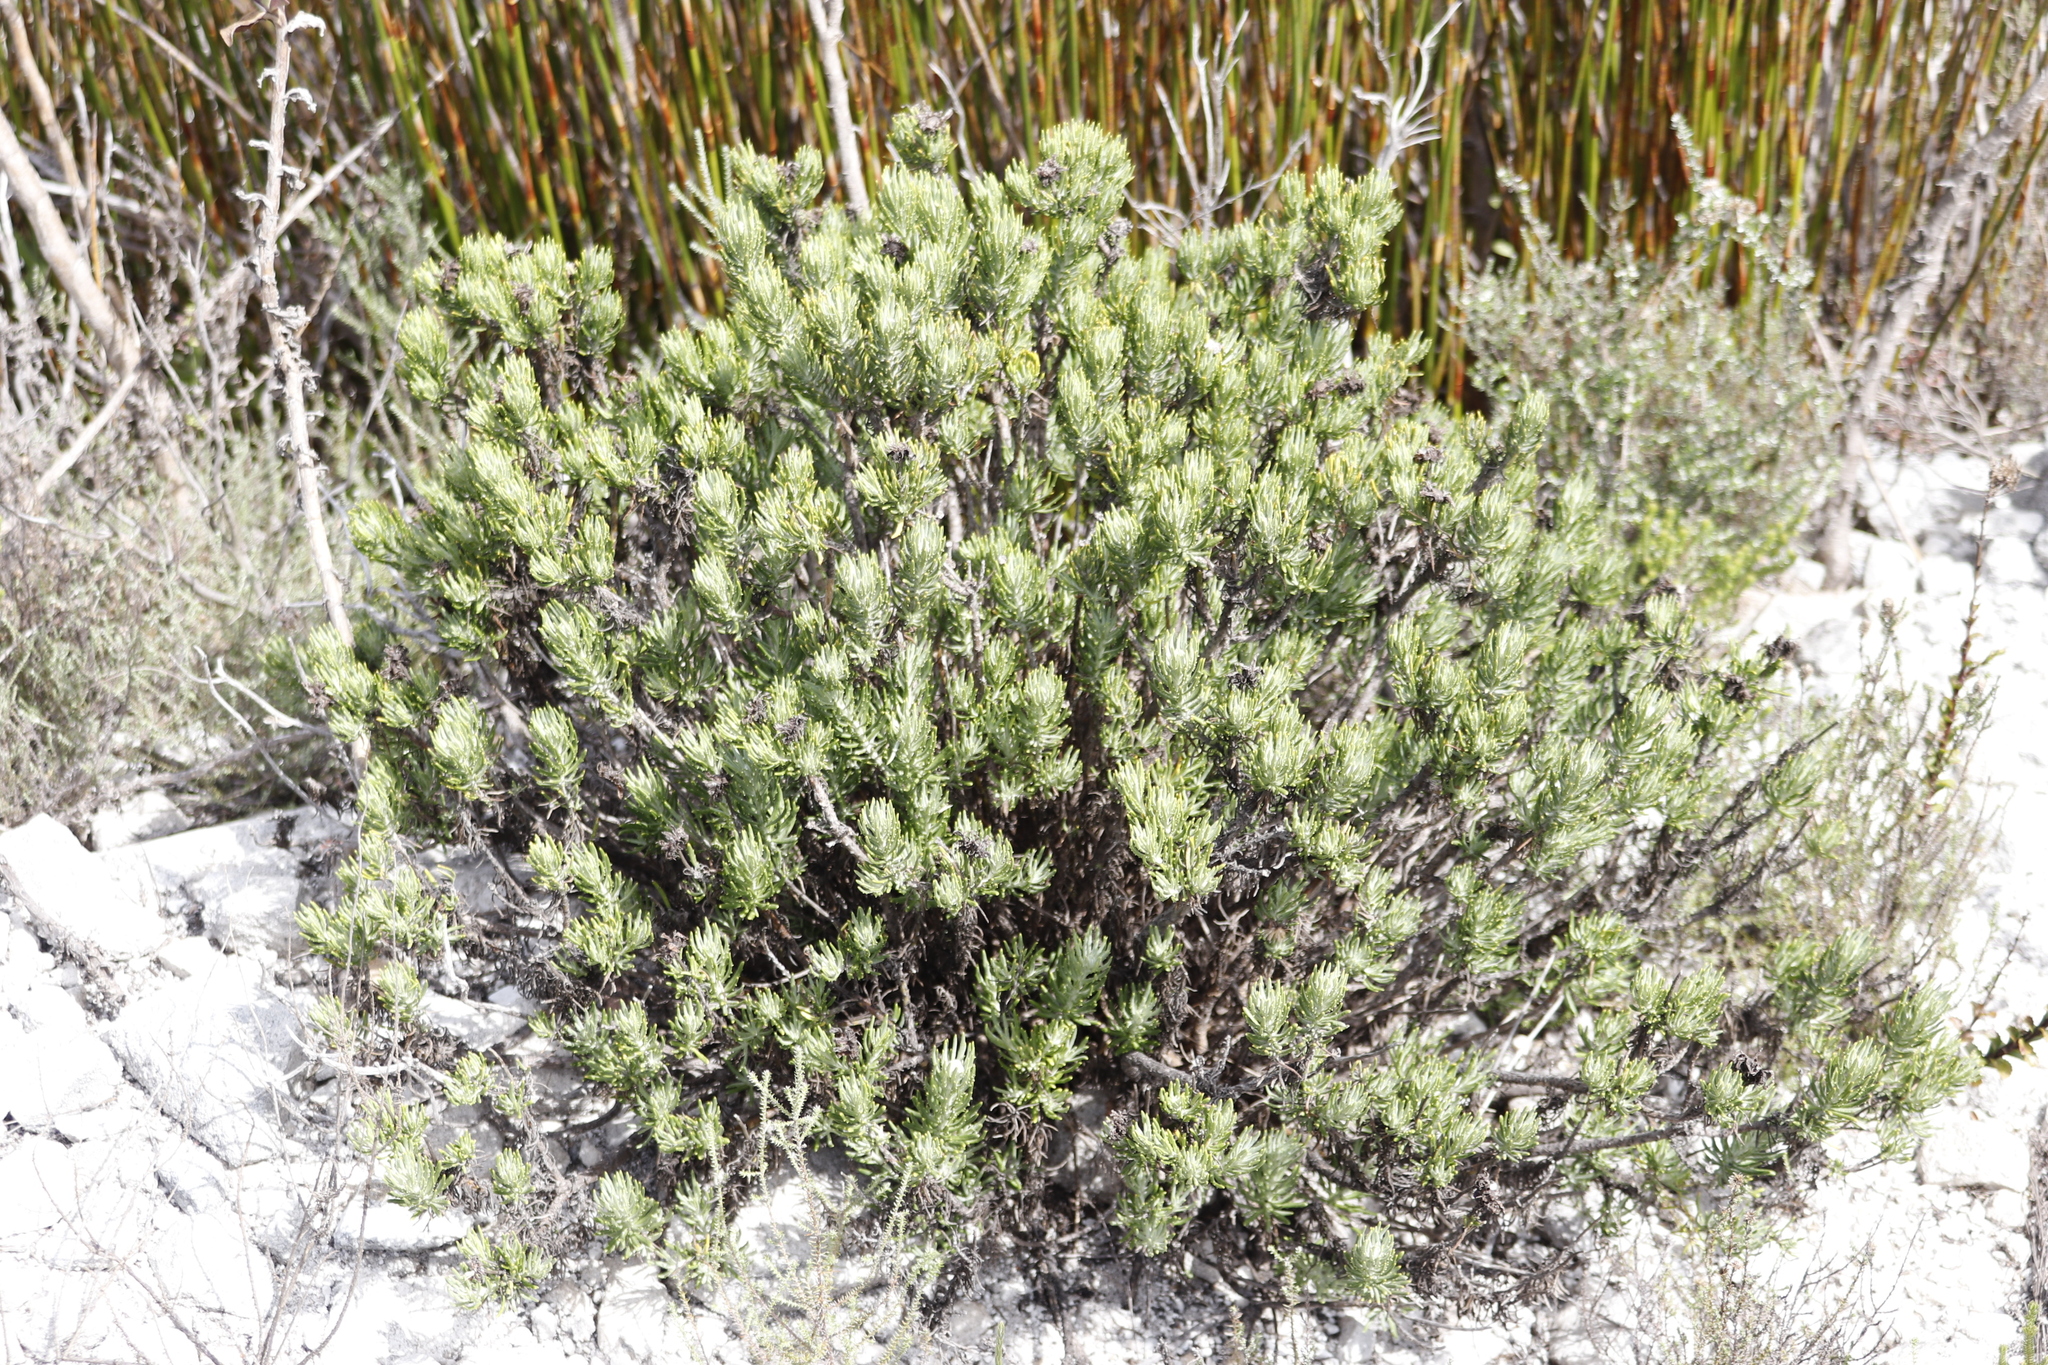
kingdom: Plantae
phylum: Tracheophyta
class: Magnoliopsida
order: Asterales
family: Asteraceae
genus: Heterolepis
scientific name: Heterolepis aliena
